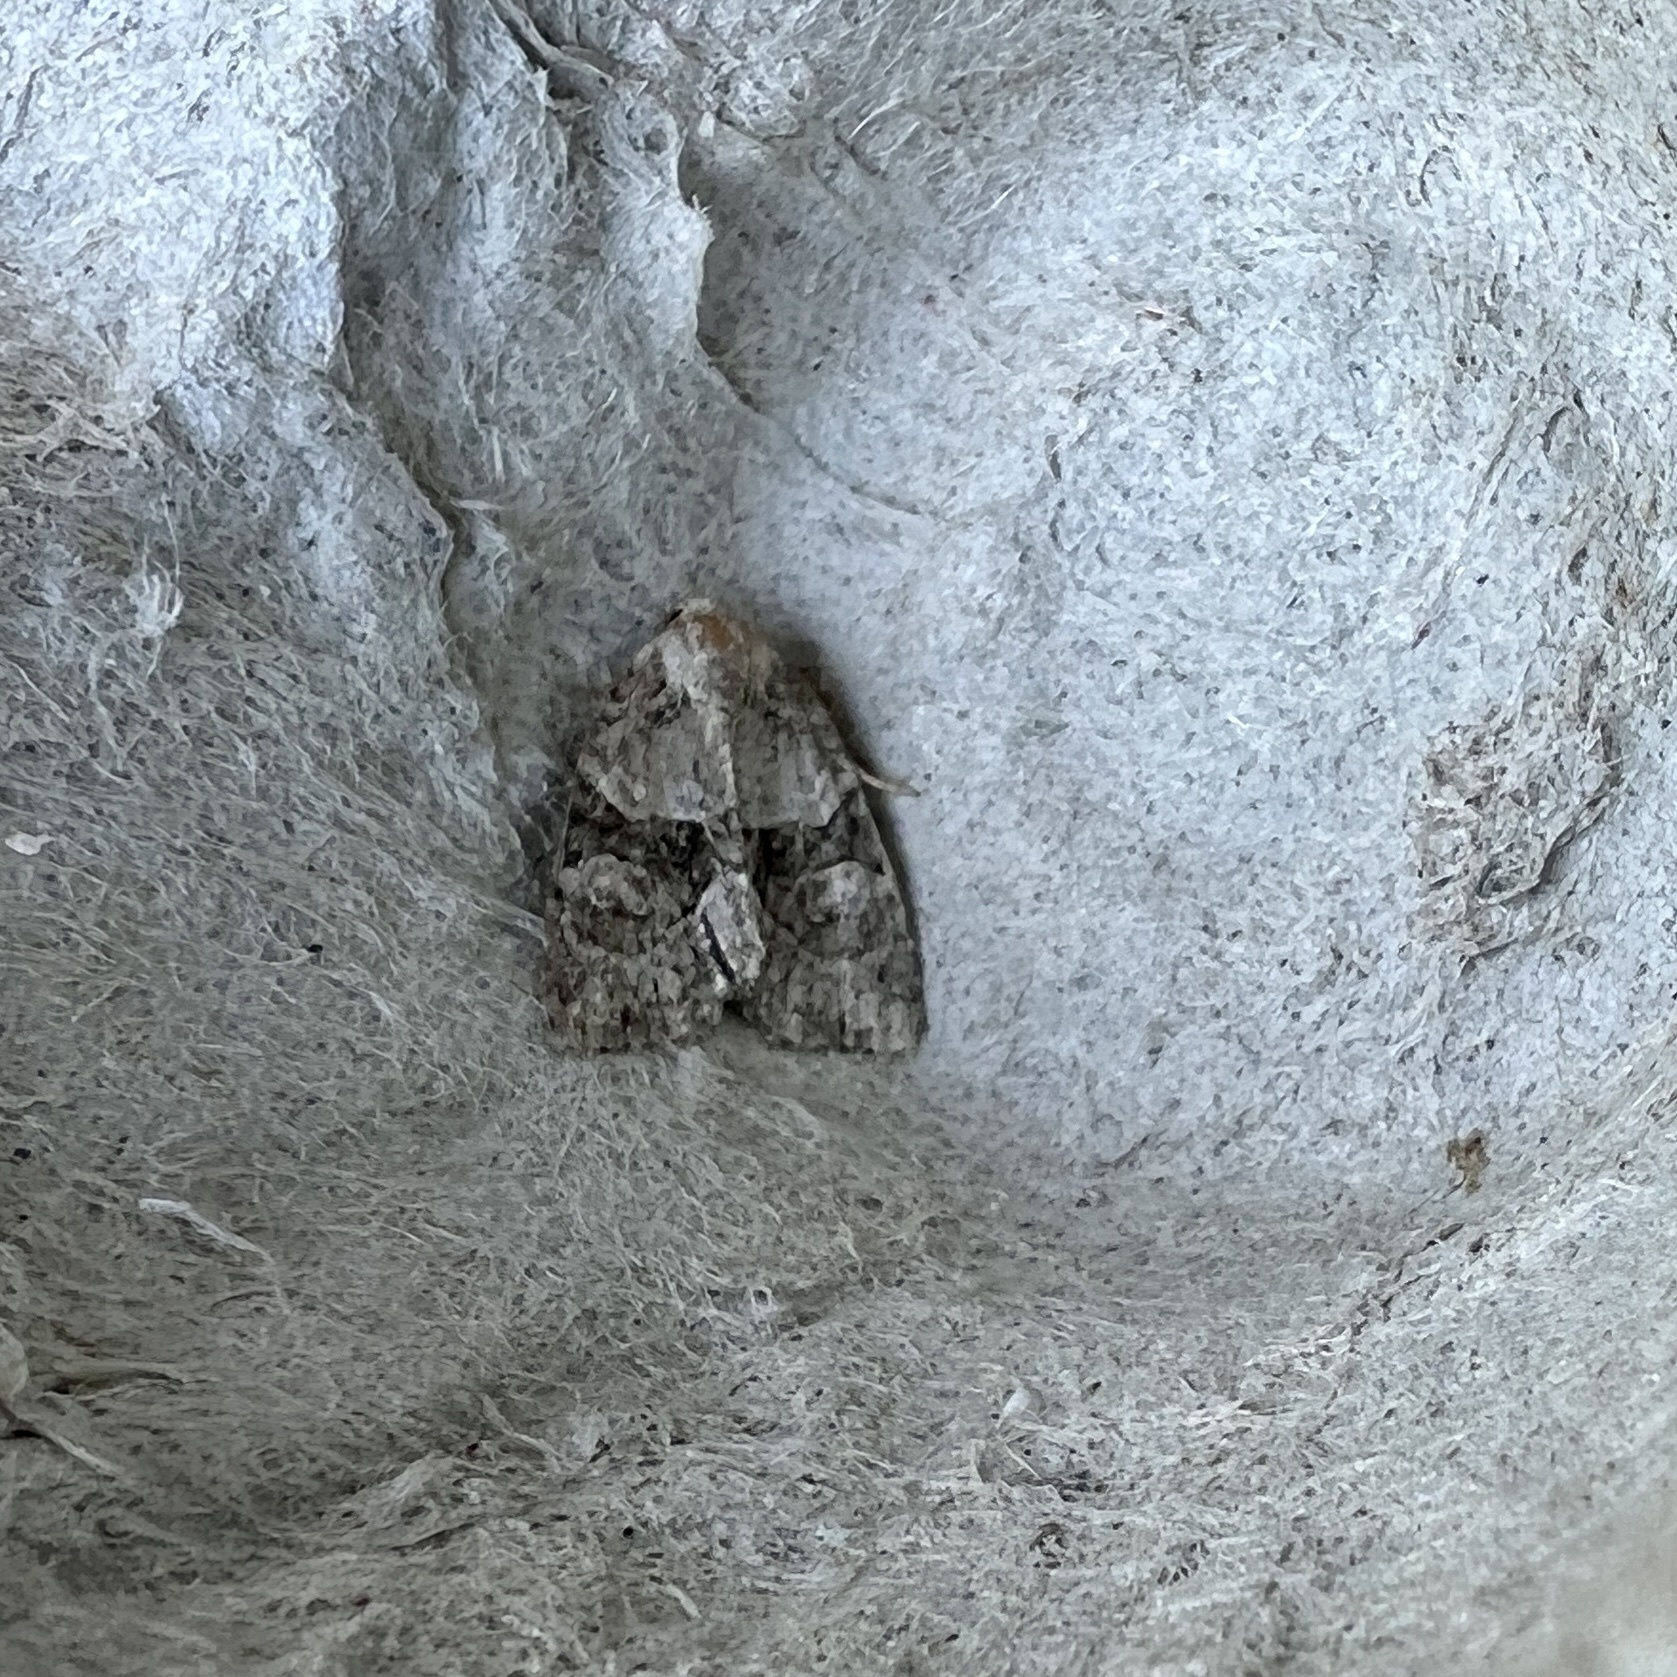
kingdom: Animalia
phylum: Arthropoda
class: Insecta
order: Lepidoptera
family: Noctuidae
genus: Neoligia
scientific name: Neoligia exhausta
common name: Exhausted brocade
